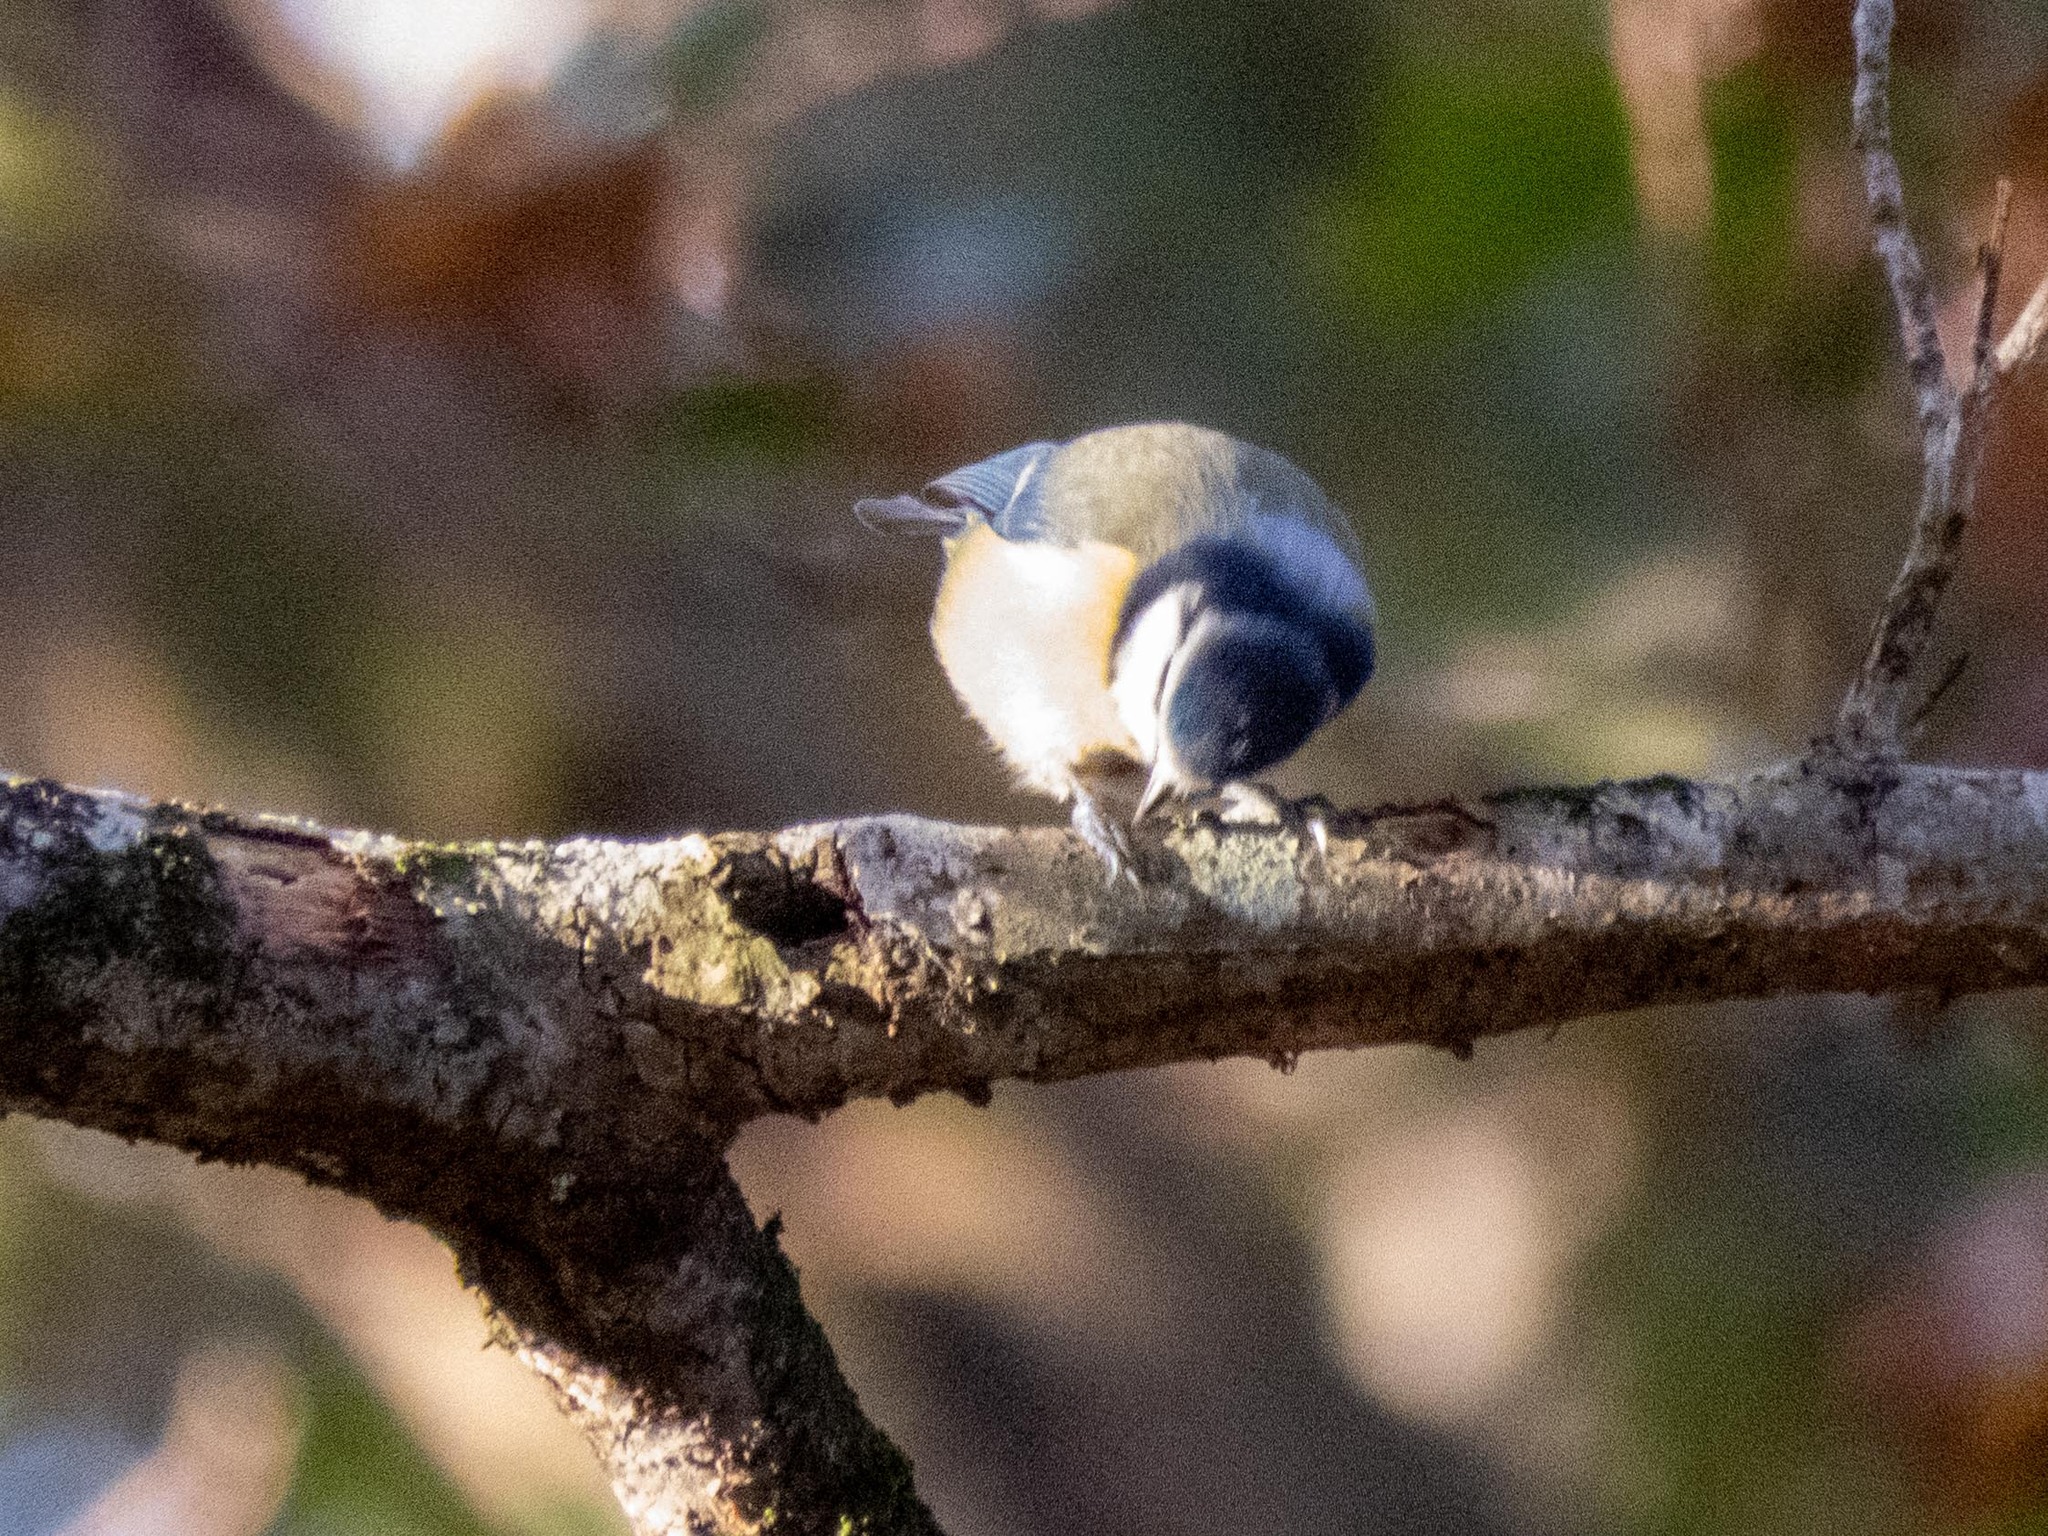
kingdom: Animalia
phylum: Chordata
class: Aves
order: Passeriformes
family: Paridae
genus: Cyanistes
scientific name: Cyanistes caeruleus
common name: Eurasian blue tit
